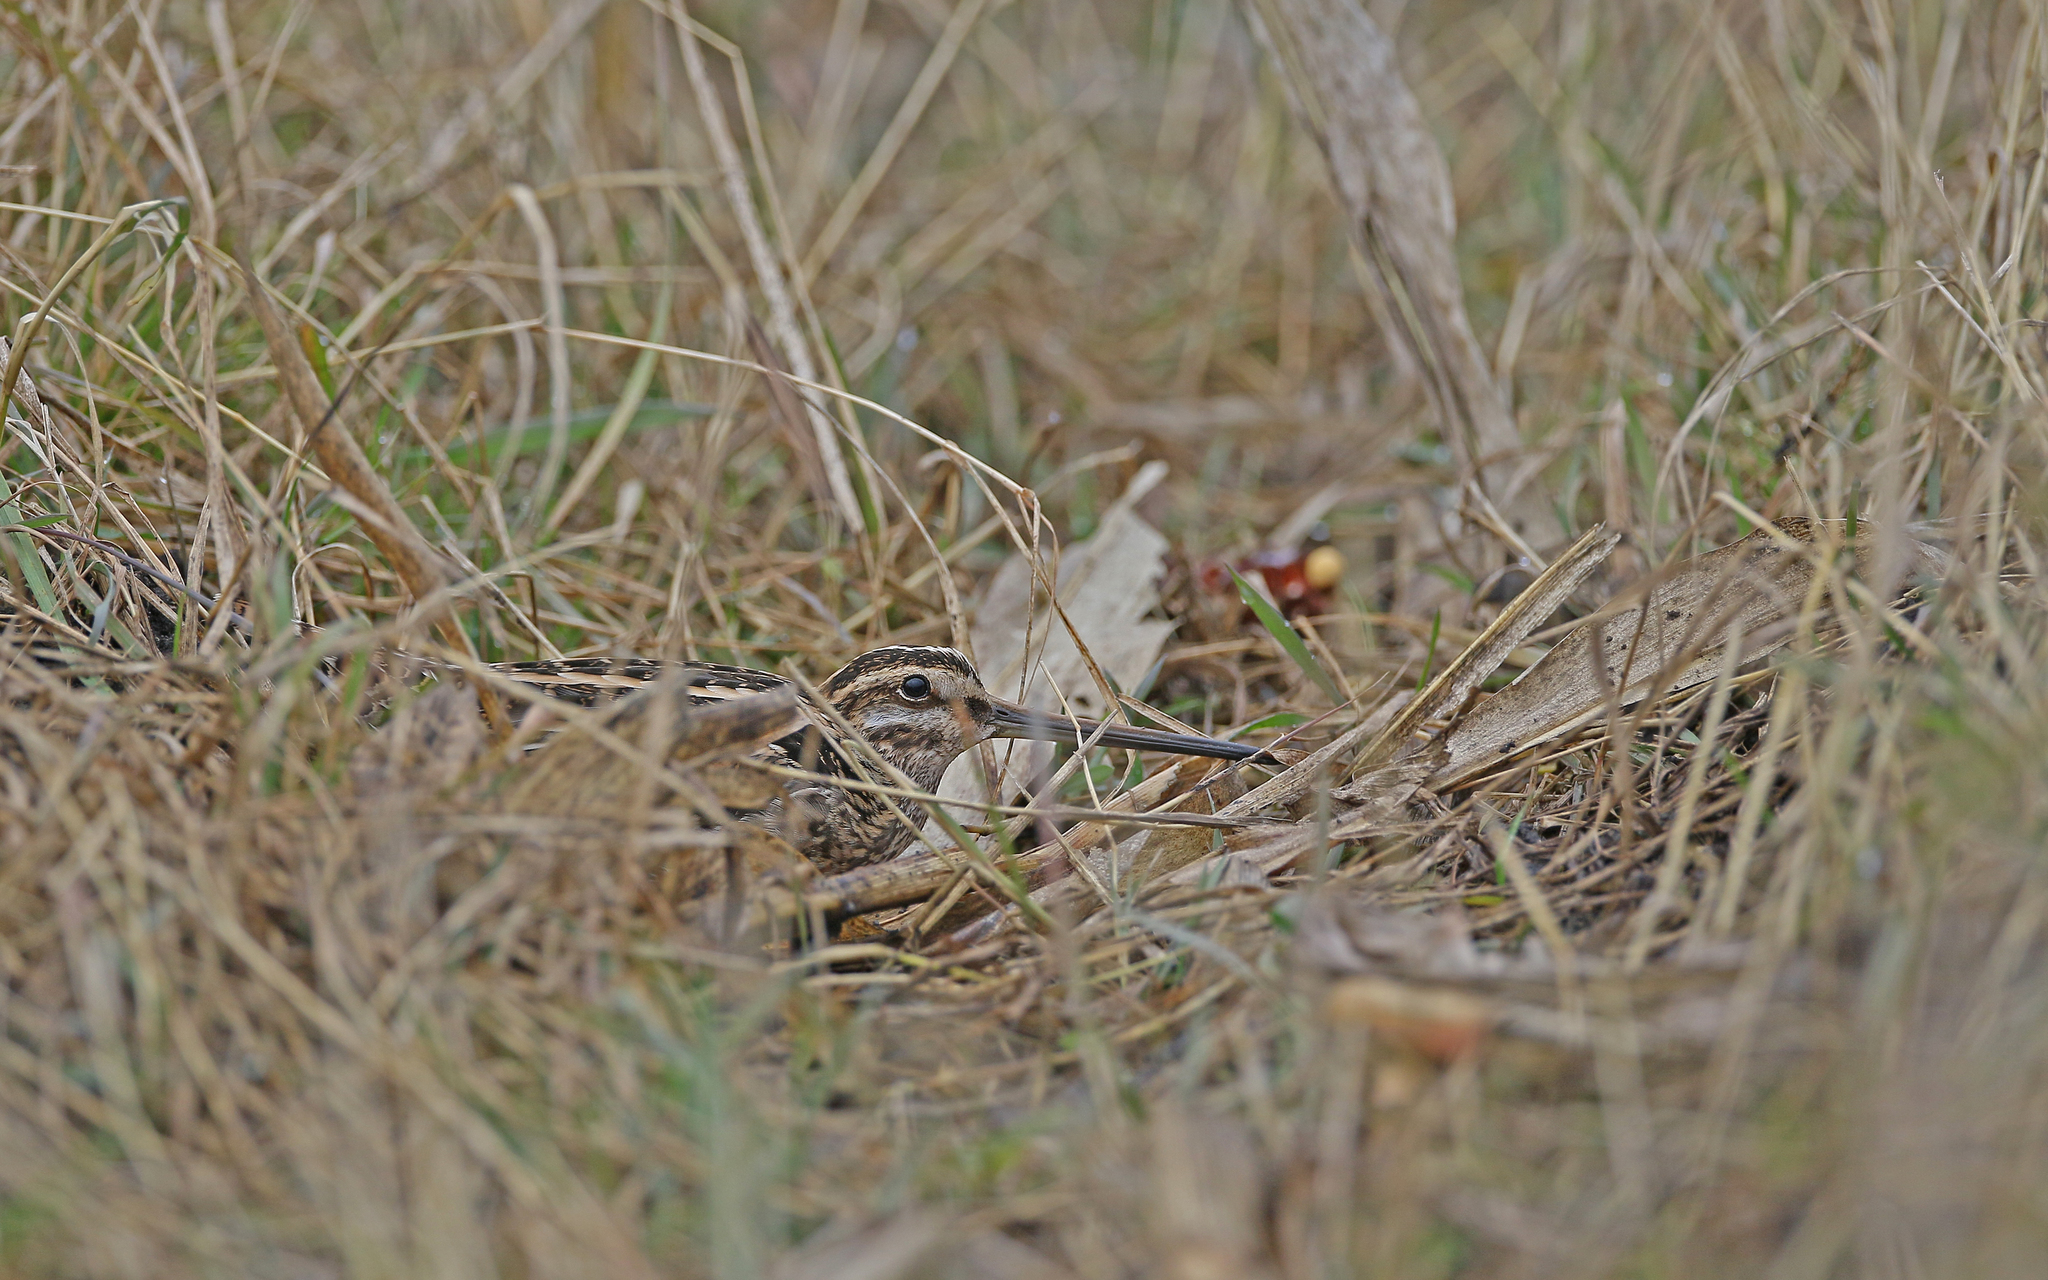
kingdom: Animalia
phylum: Chordata
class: Aves
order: Charadriiformes
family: Scolopacidae
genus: Gallinago
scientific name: Gallinago gallinago
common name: Common snipe
